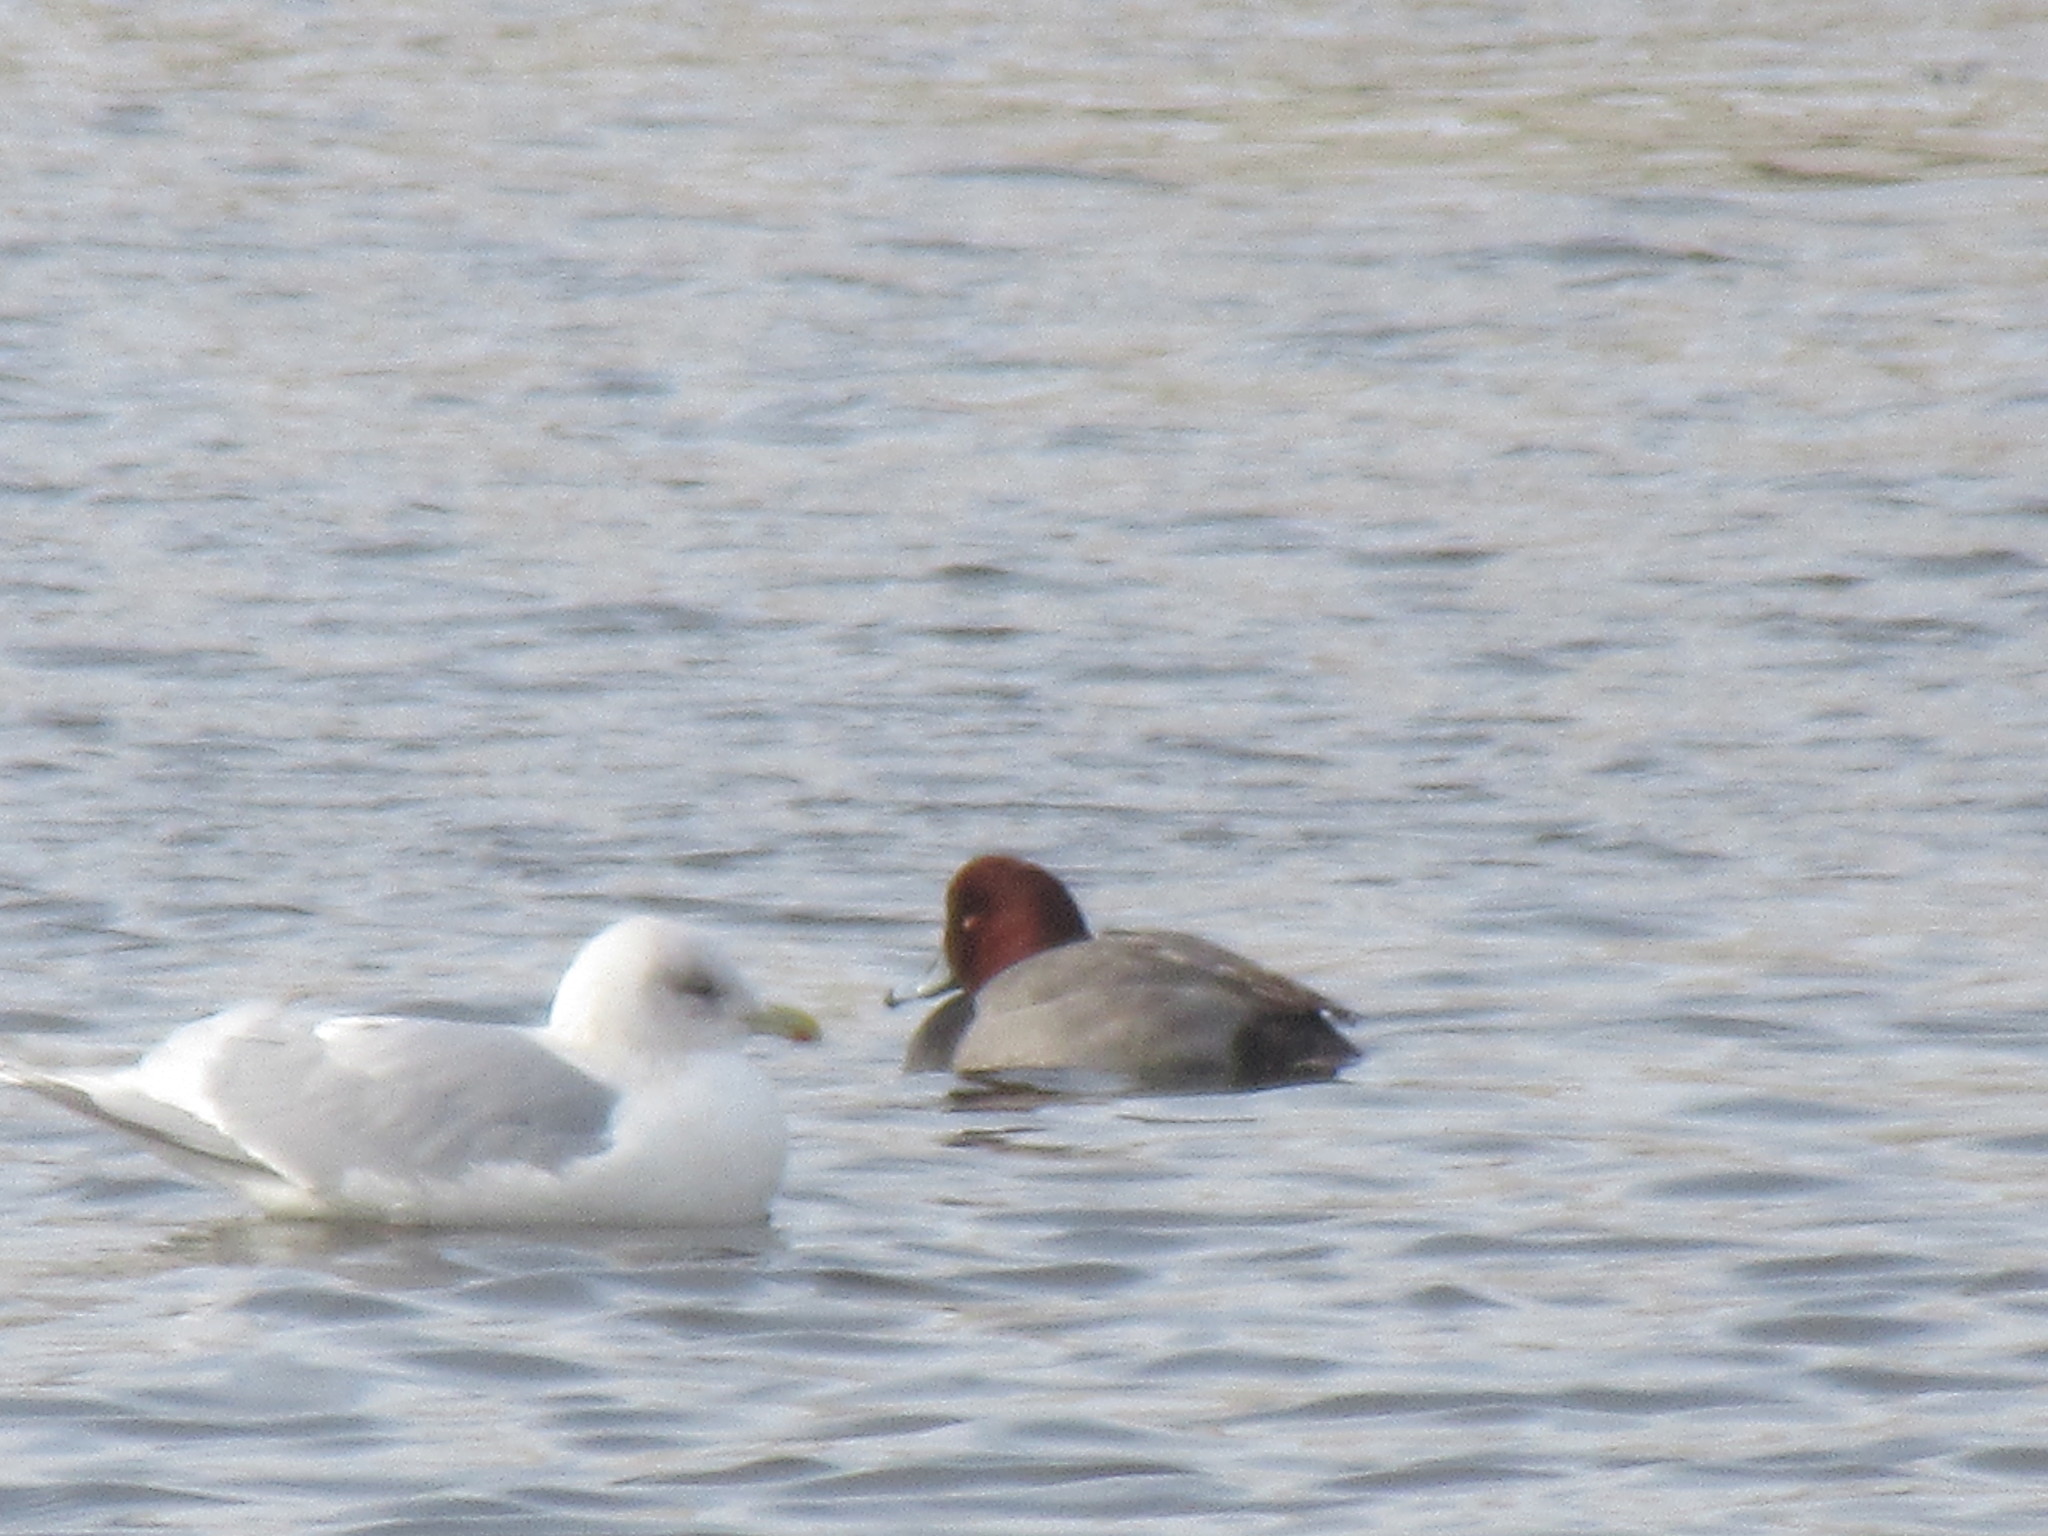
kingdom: Animalia
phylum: Chordata
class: Aves
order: Anseriformes
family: Anatidae
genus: Aythya
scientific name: Aythya americana
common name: Redhead
